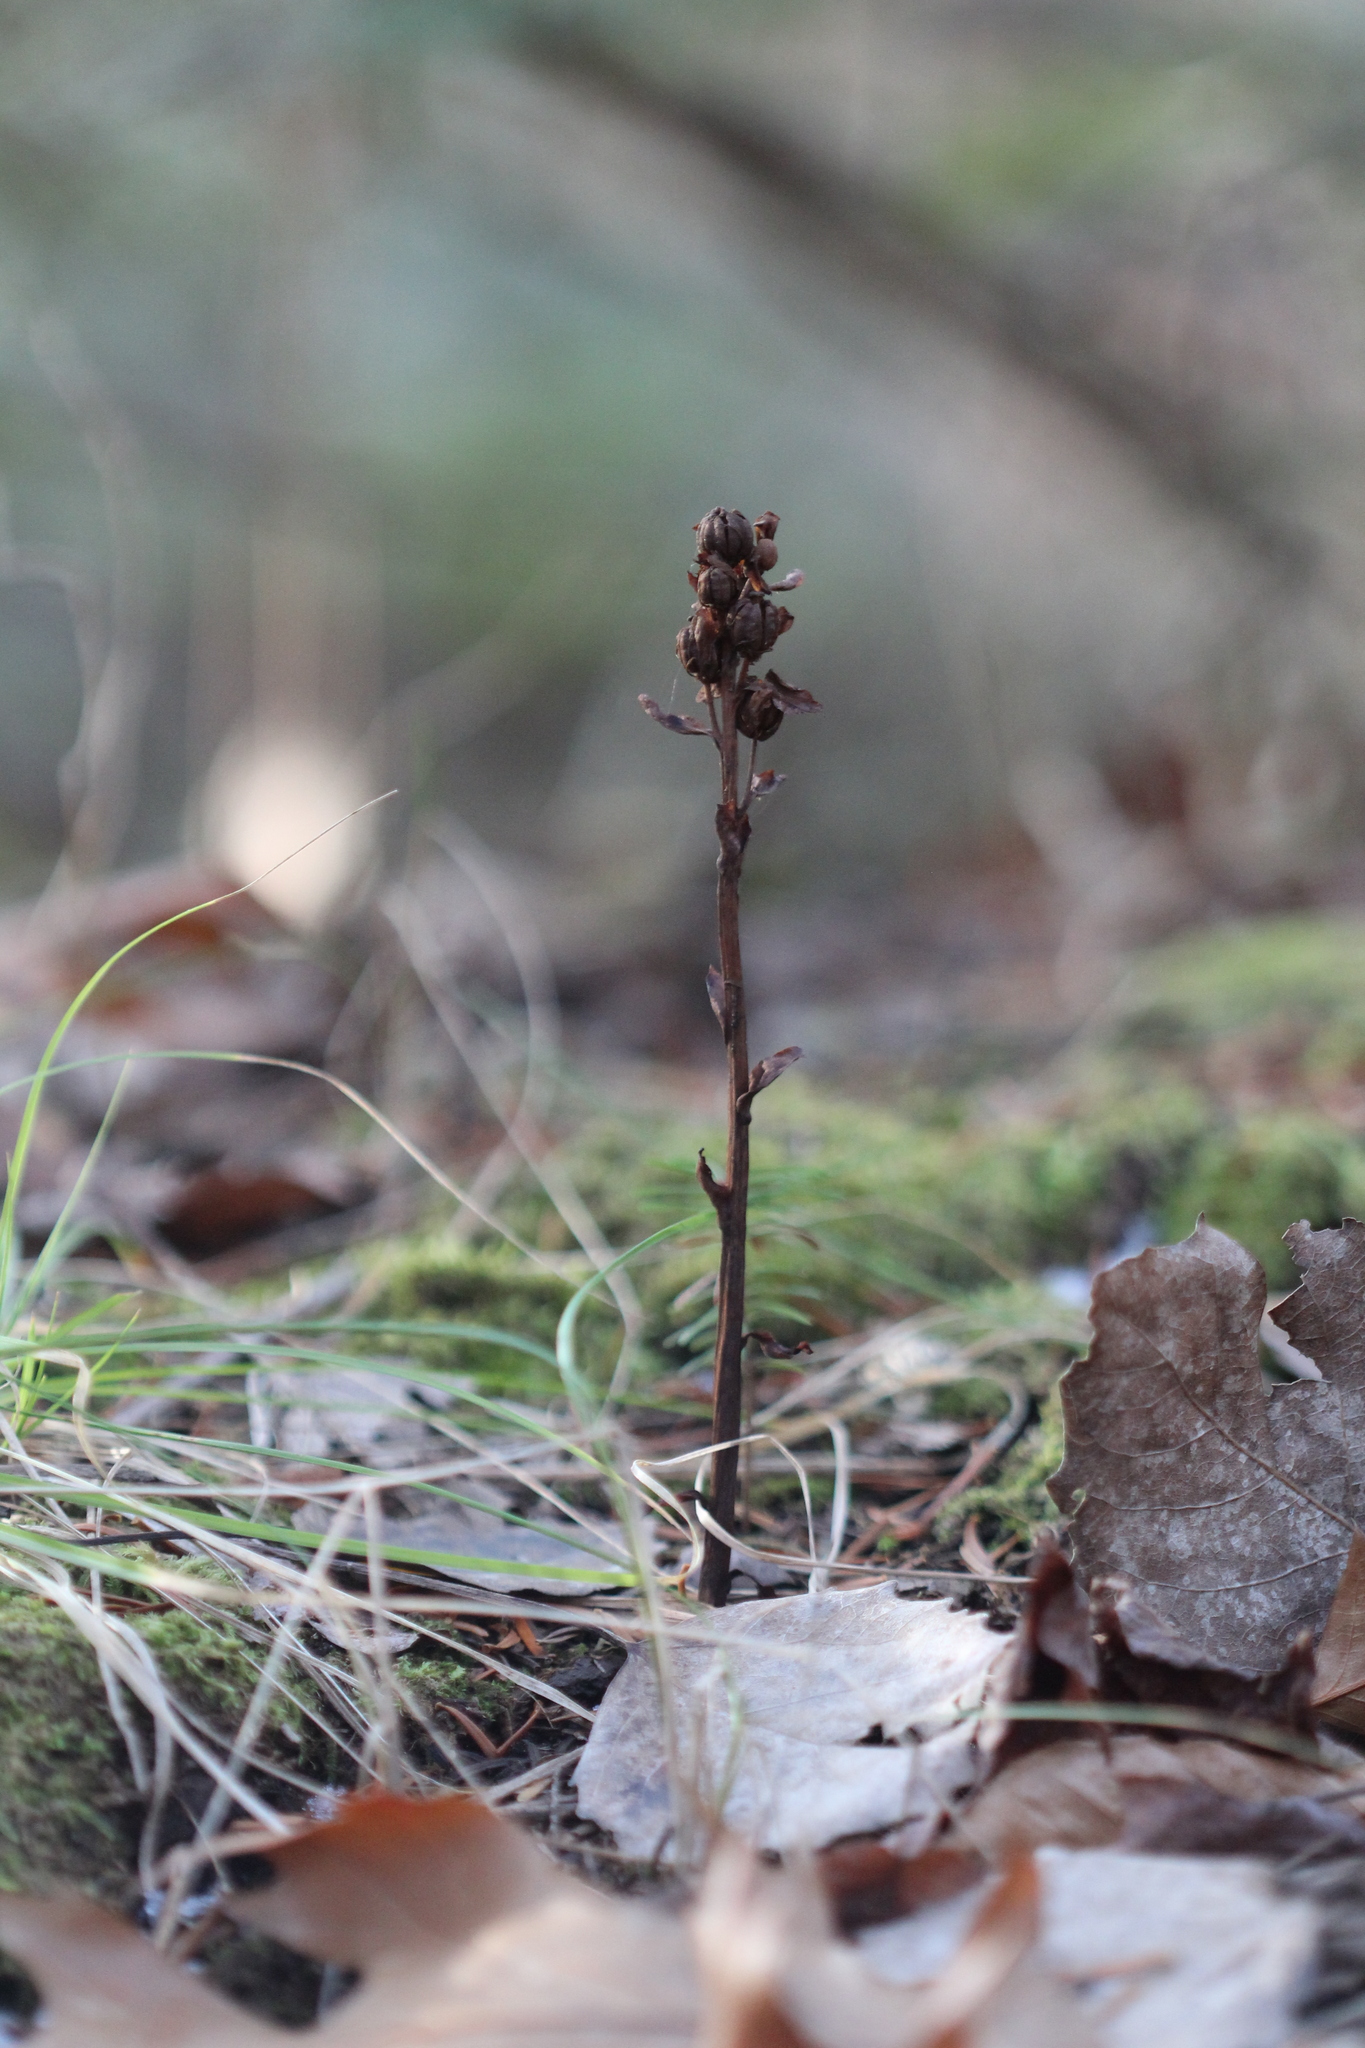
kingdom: Plantae
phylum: Tracheophyta
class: Magnoliopsida
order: Ericales
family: Ericaceae
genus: Hypopitys
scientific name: Hypopitys monotropa
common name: Yellow bird's-nest
